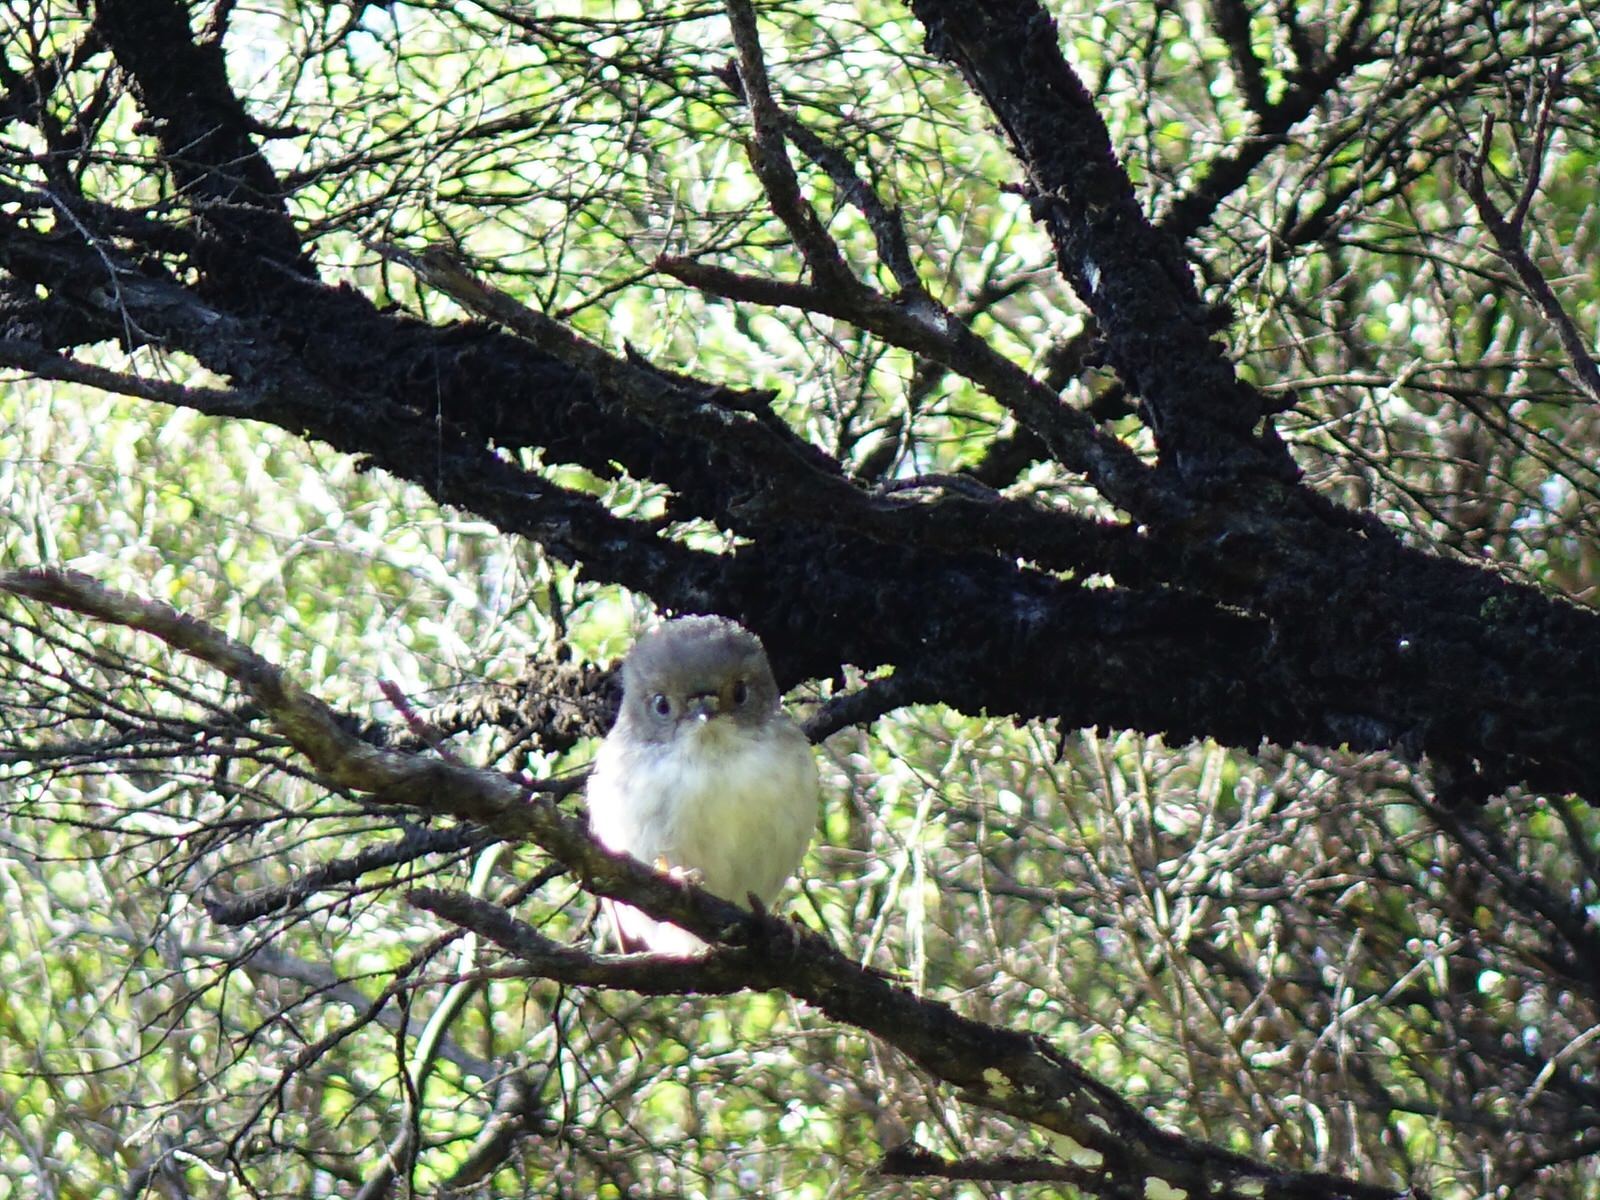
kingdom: Animalia
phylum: Chordata
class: Aves
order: Passeriformes
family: Petroicidae
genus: Petroica
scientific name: Petroica macrocephala
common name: Tomtit
